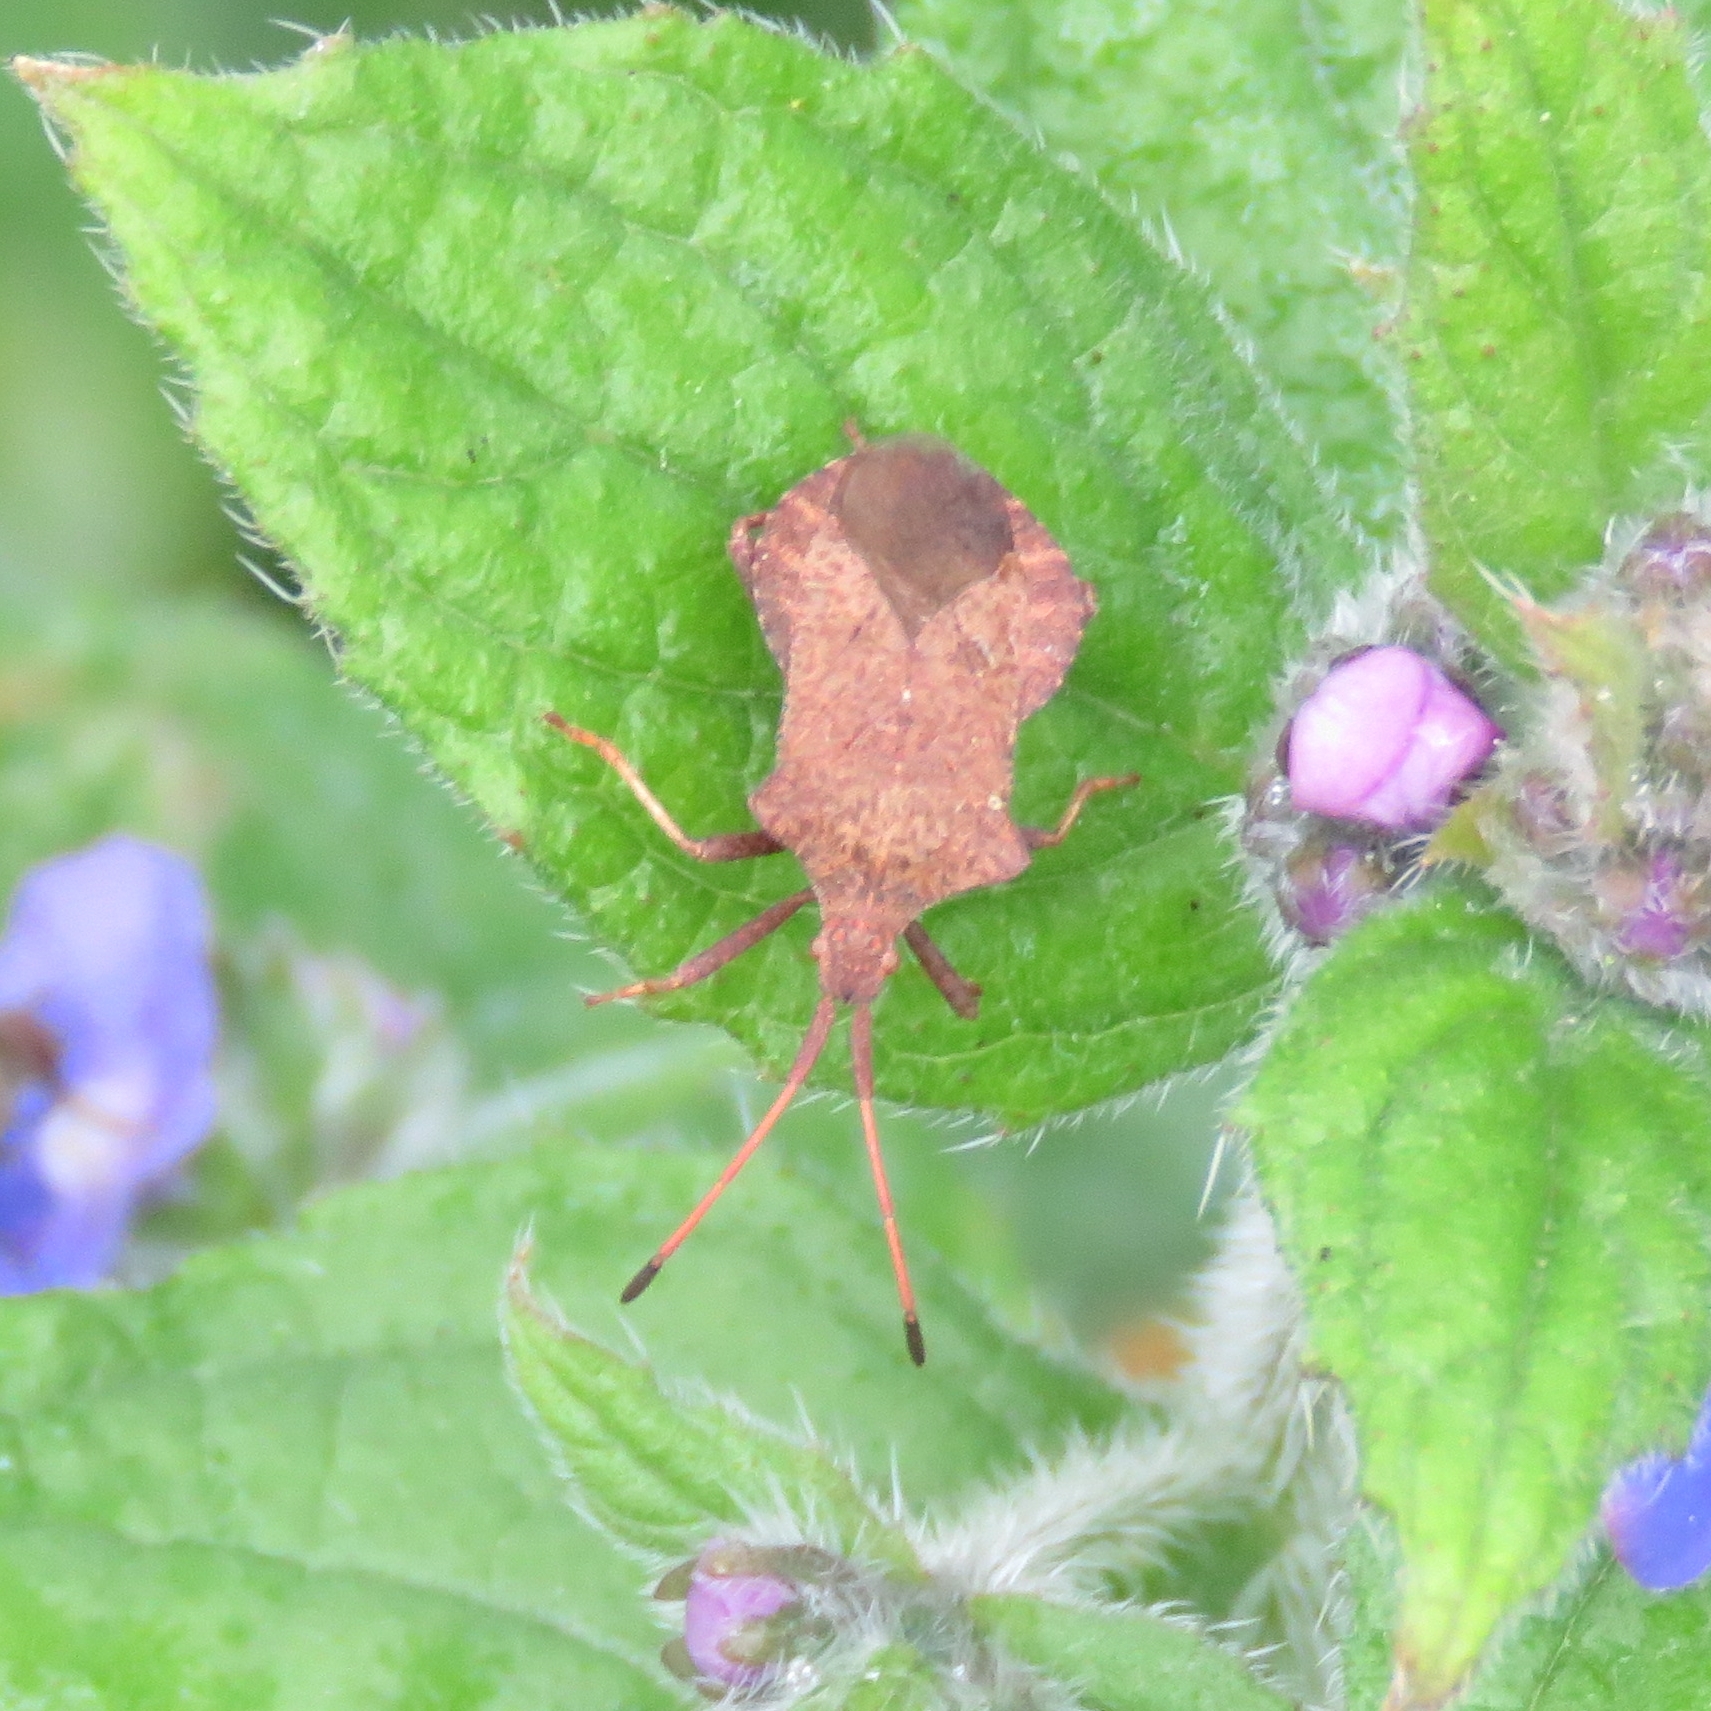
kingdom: Animalia
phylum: Arthropoda
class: Insecta
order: Hemiptera
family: Coreidae
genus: Coreus
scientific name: Coreus marginatus
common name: Dock bug
